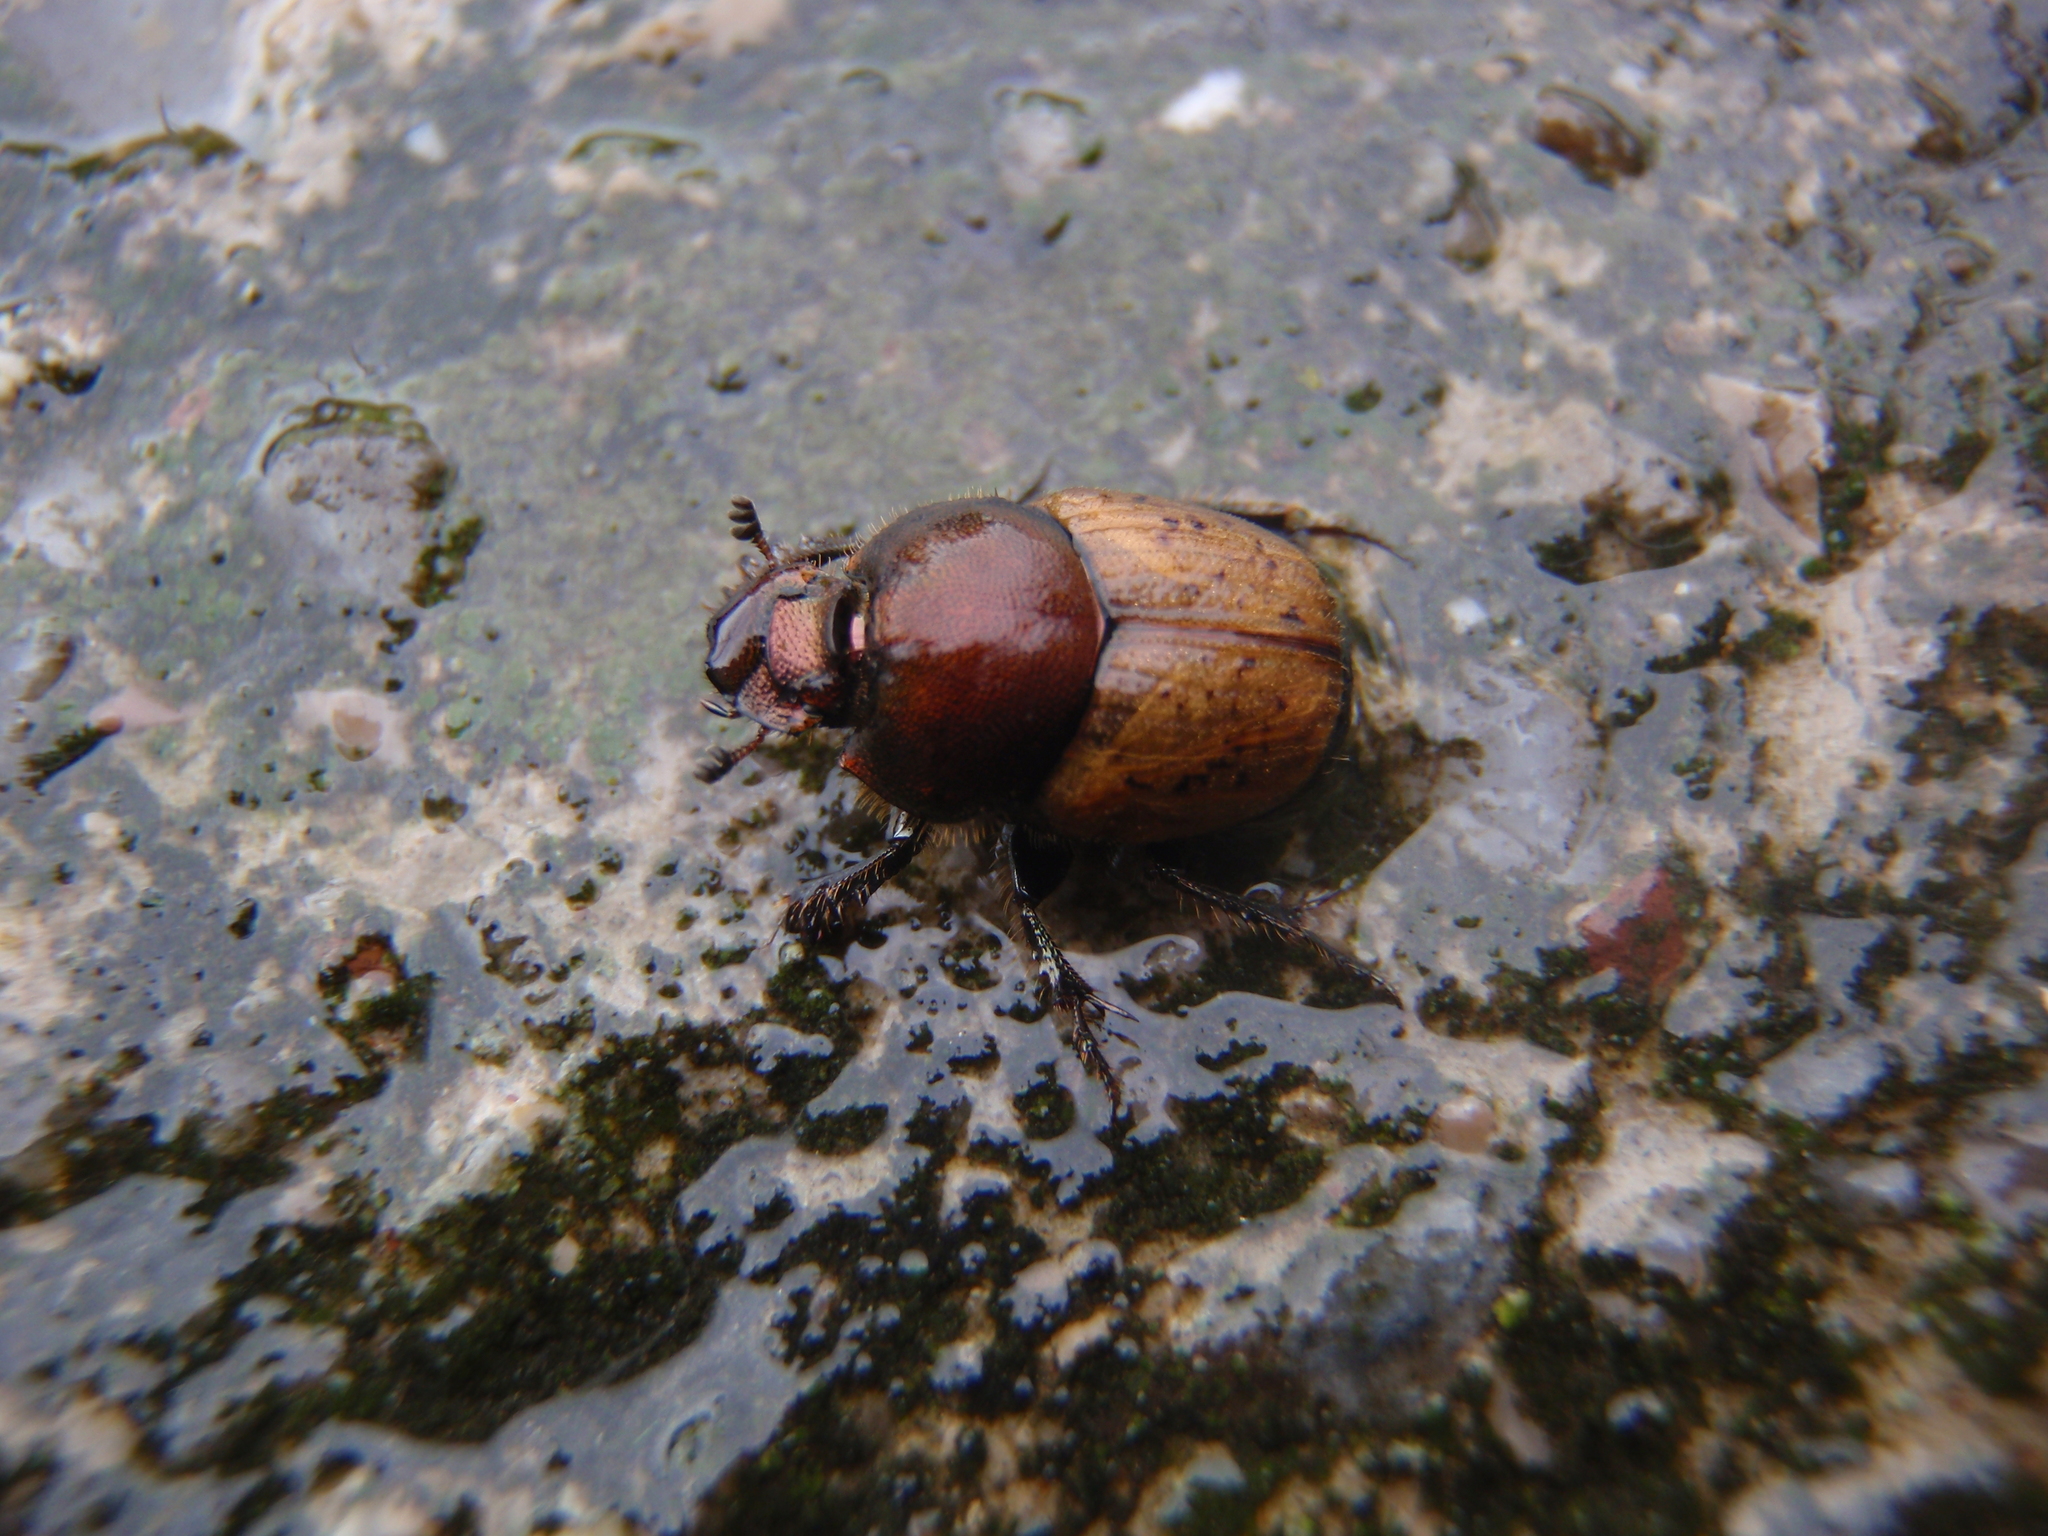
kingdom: Animalia
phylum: Arthropoda
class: Insecta
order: Coleoptera
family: Scarabaeidae
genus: Onthophagus
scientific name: Onthophagus coenobita
